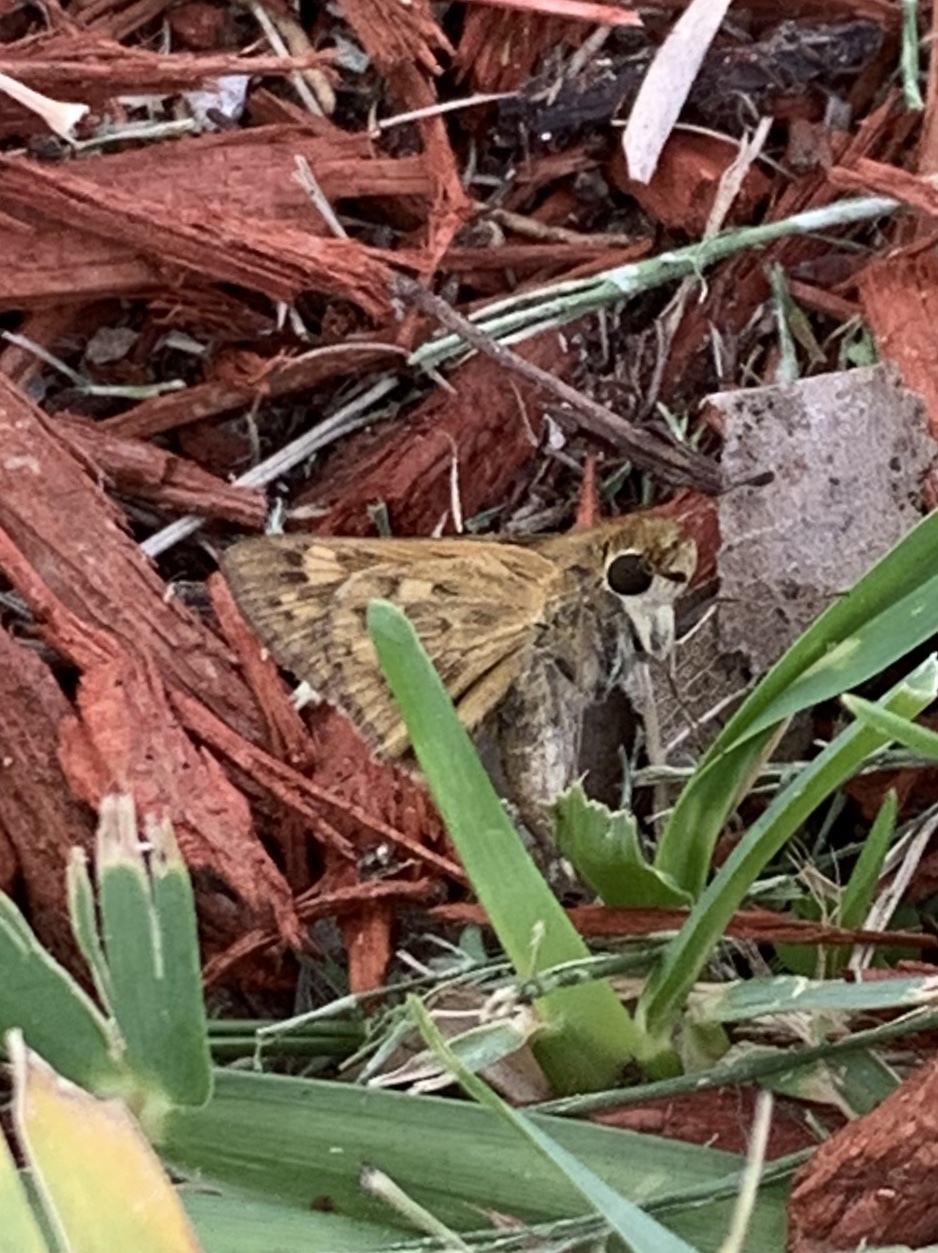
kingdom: Animalia
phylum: Arthropoda
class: Insecta
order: Lepidoptera
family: Hesperiidae
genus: Hylephila
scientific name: Hylephila phyleus
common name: Fiery skipper
